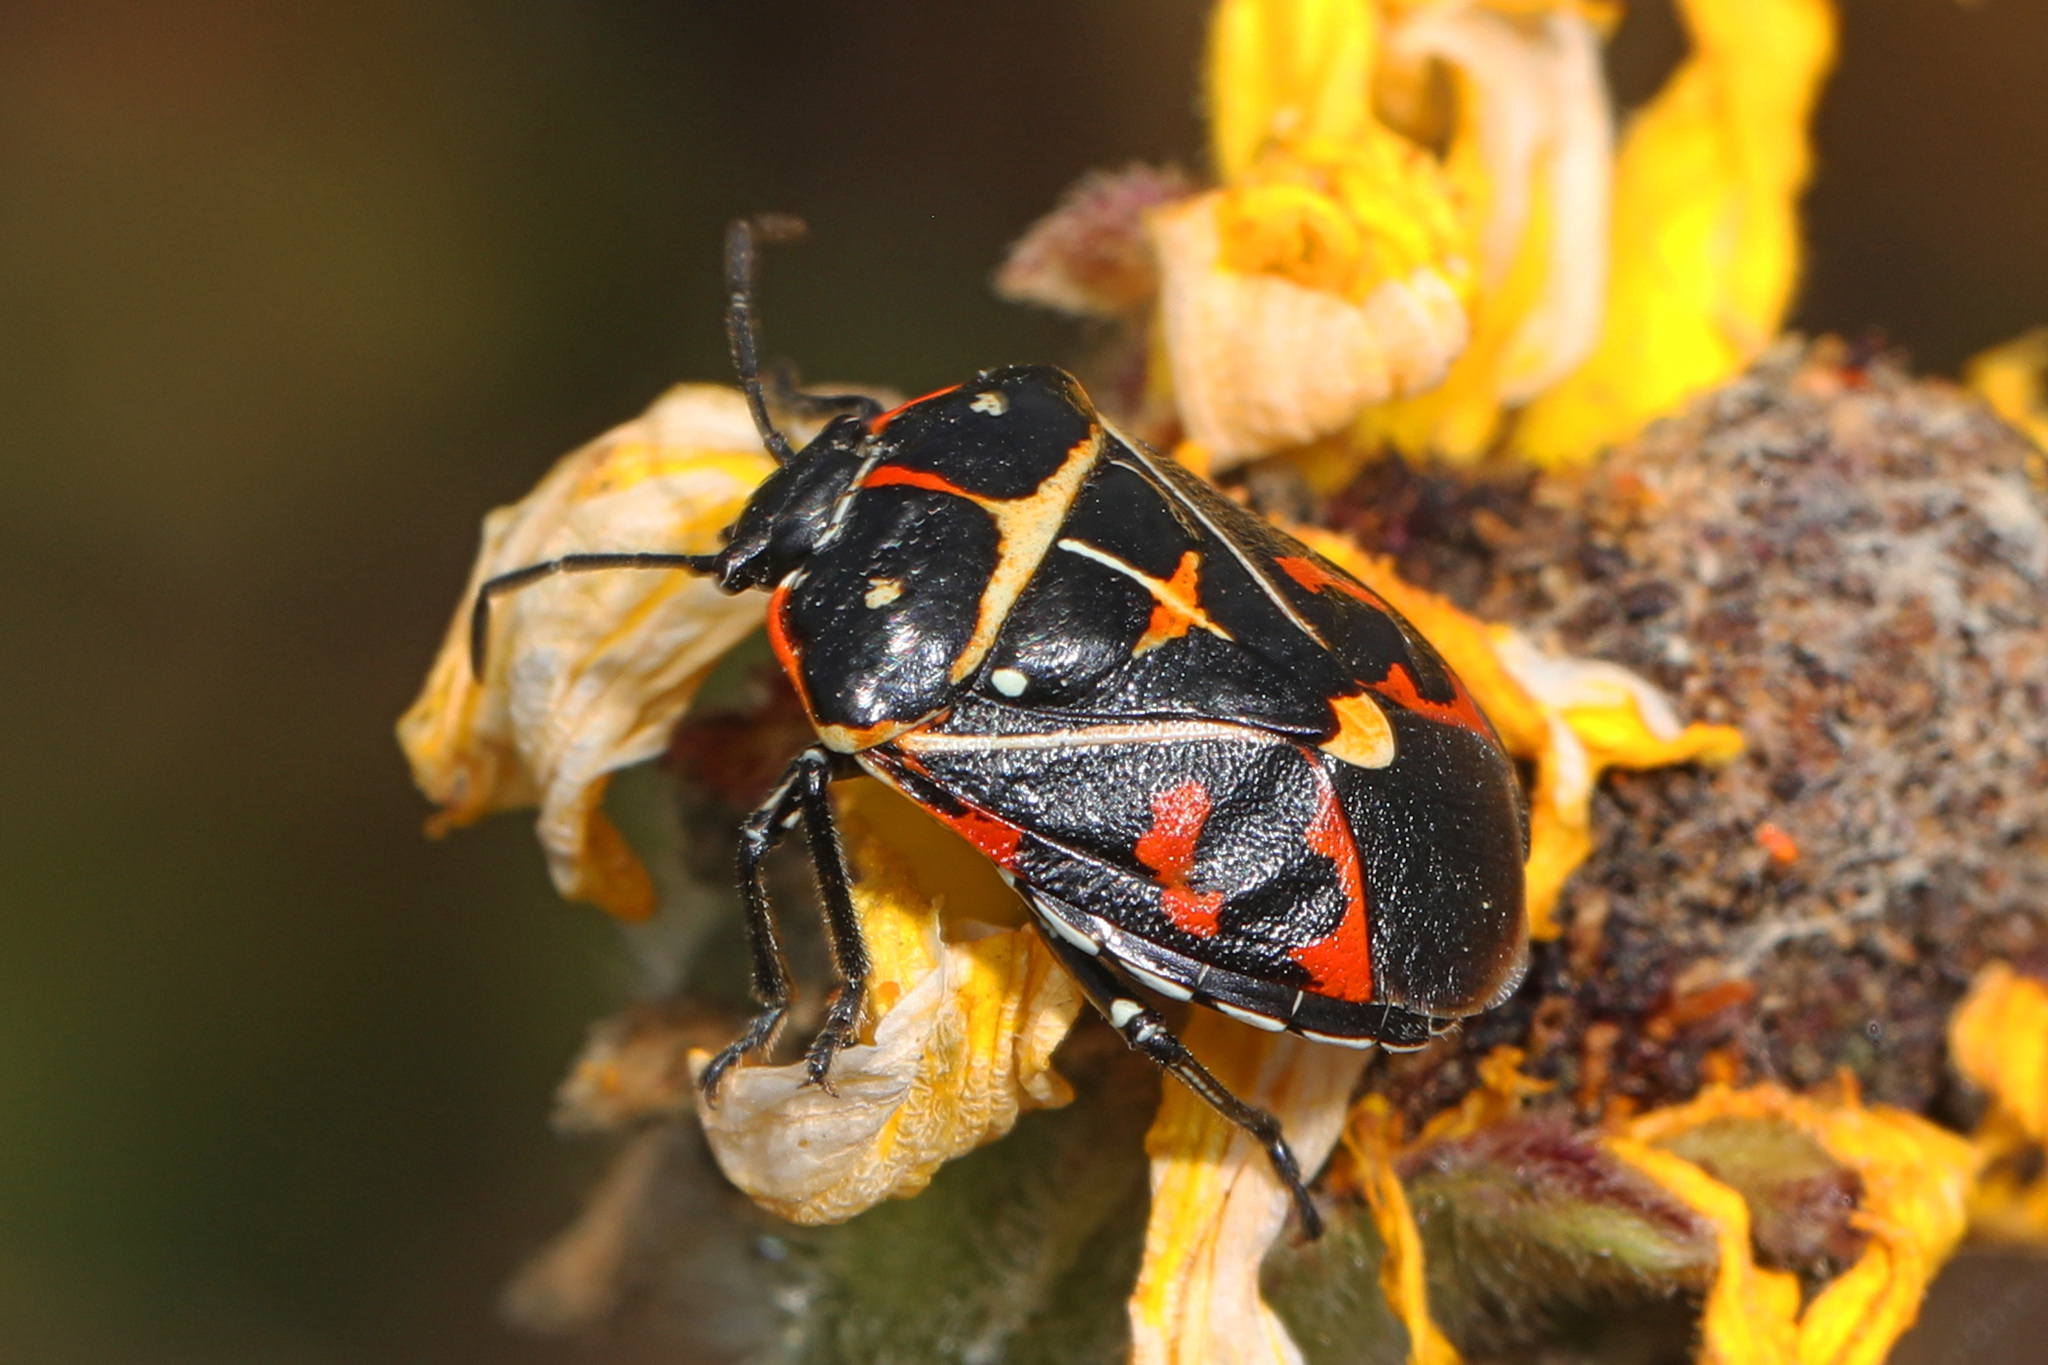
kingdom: Animalia
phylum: Arthropoda
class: Insecta
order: Hemiptera
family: Pentatomidae
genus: Murgantia
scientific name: Murgantia histrionica
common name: Harlequin bug
